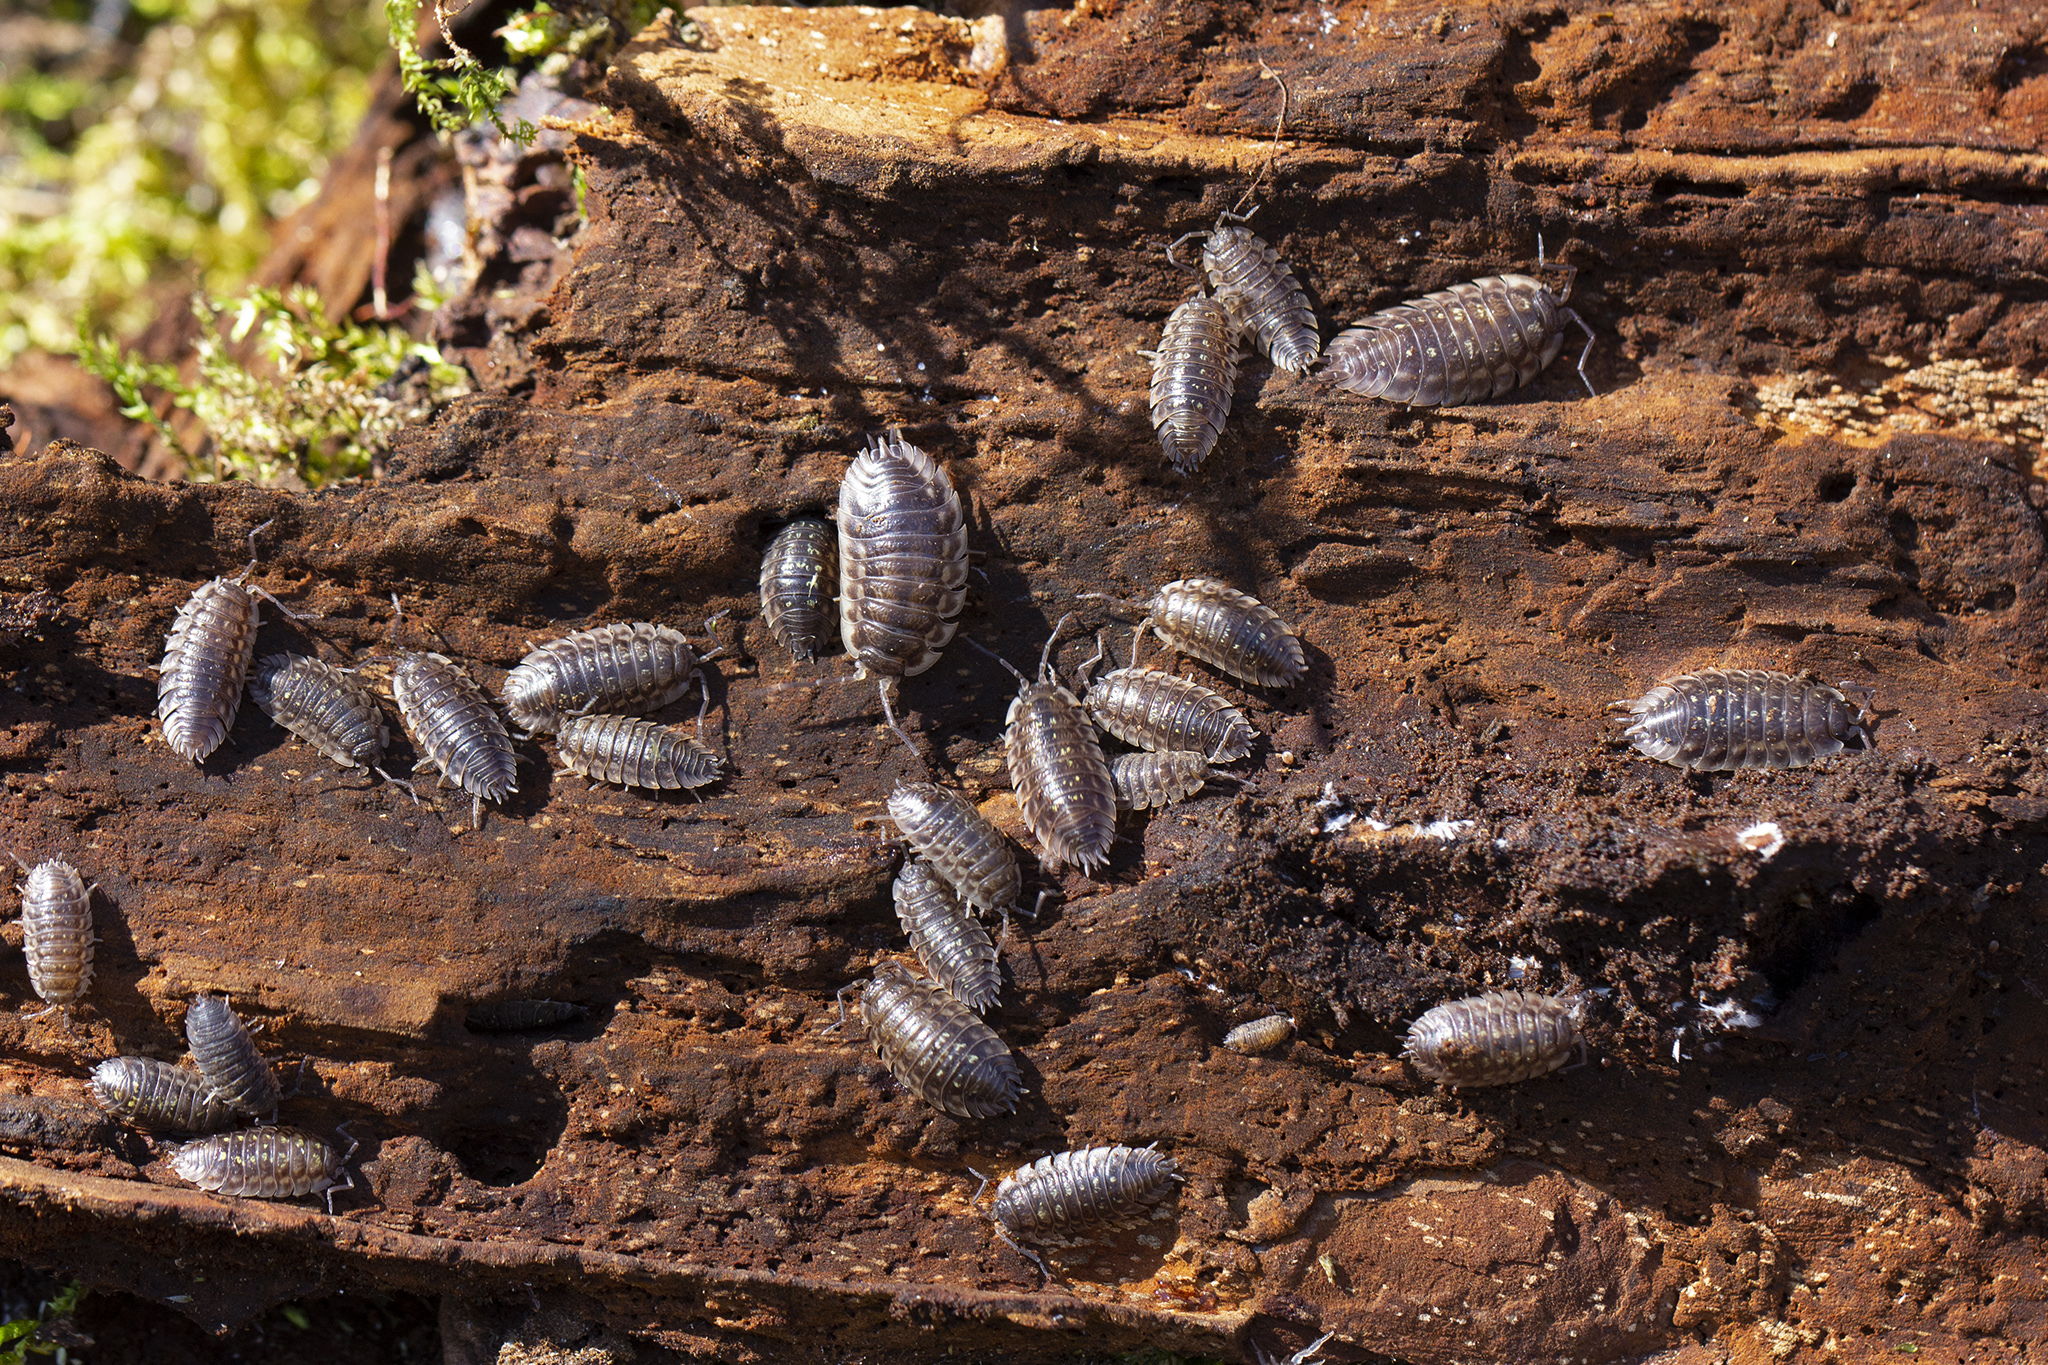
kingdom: Animalia
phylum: Arthropoda
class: Malacostraca
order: Isopoda
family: Oniscidae
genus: Oniscus
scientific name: Oniscus asellus
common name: Common shiny woodlouse
